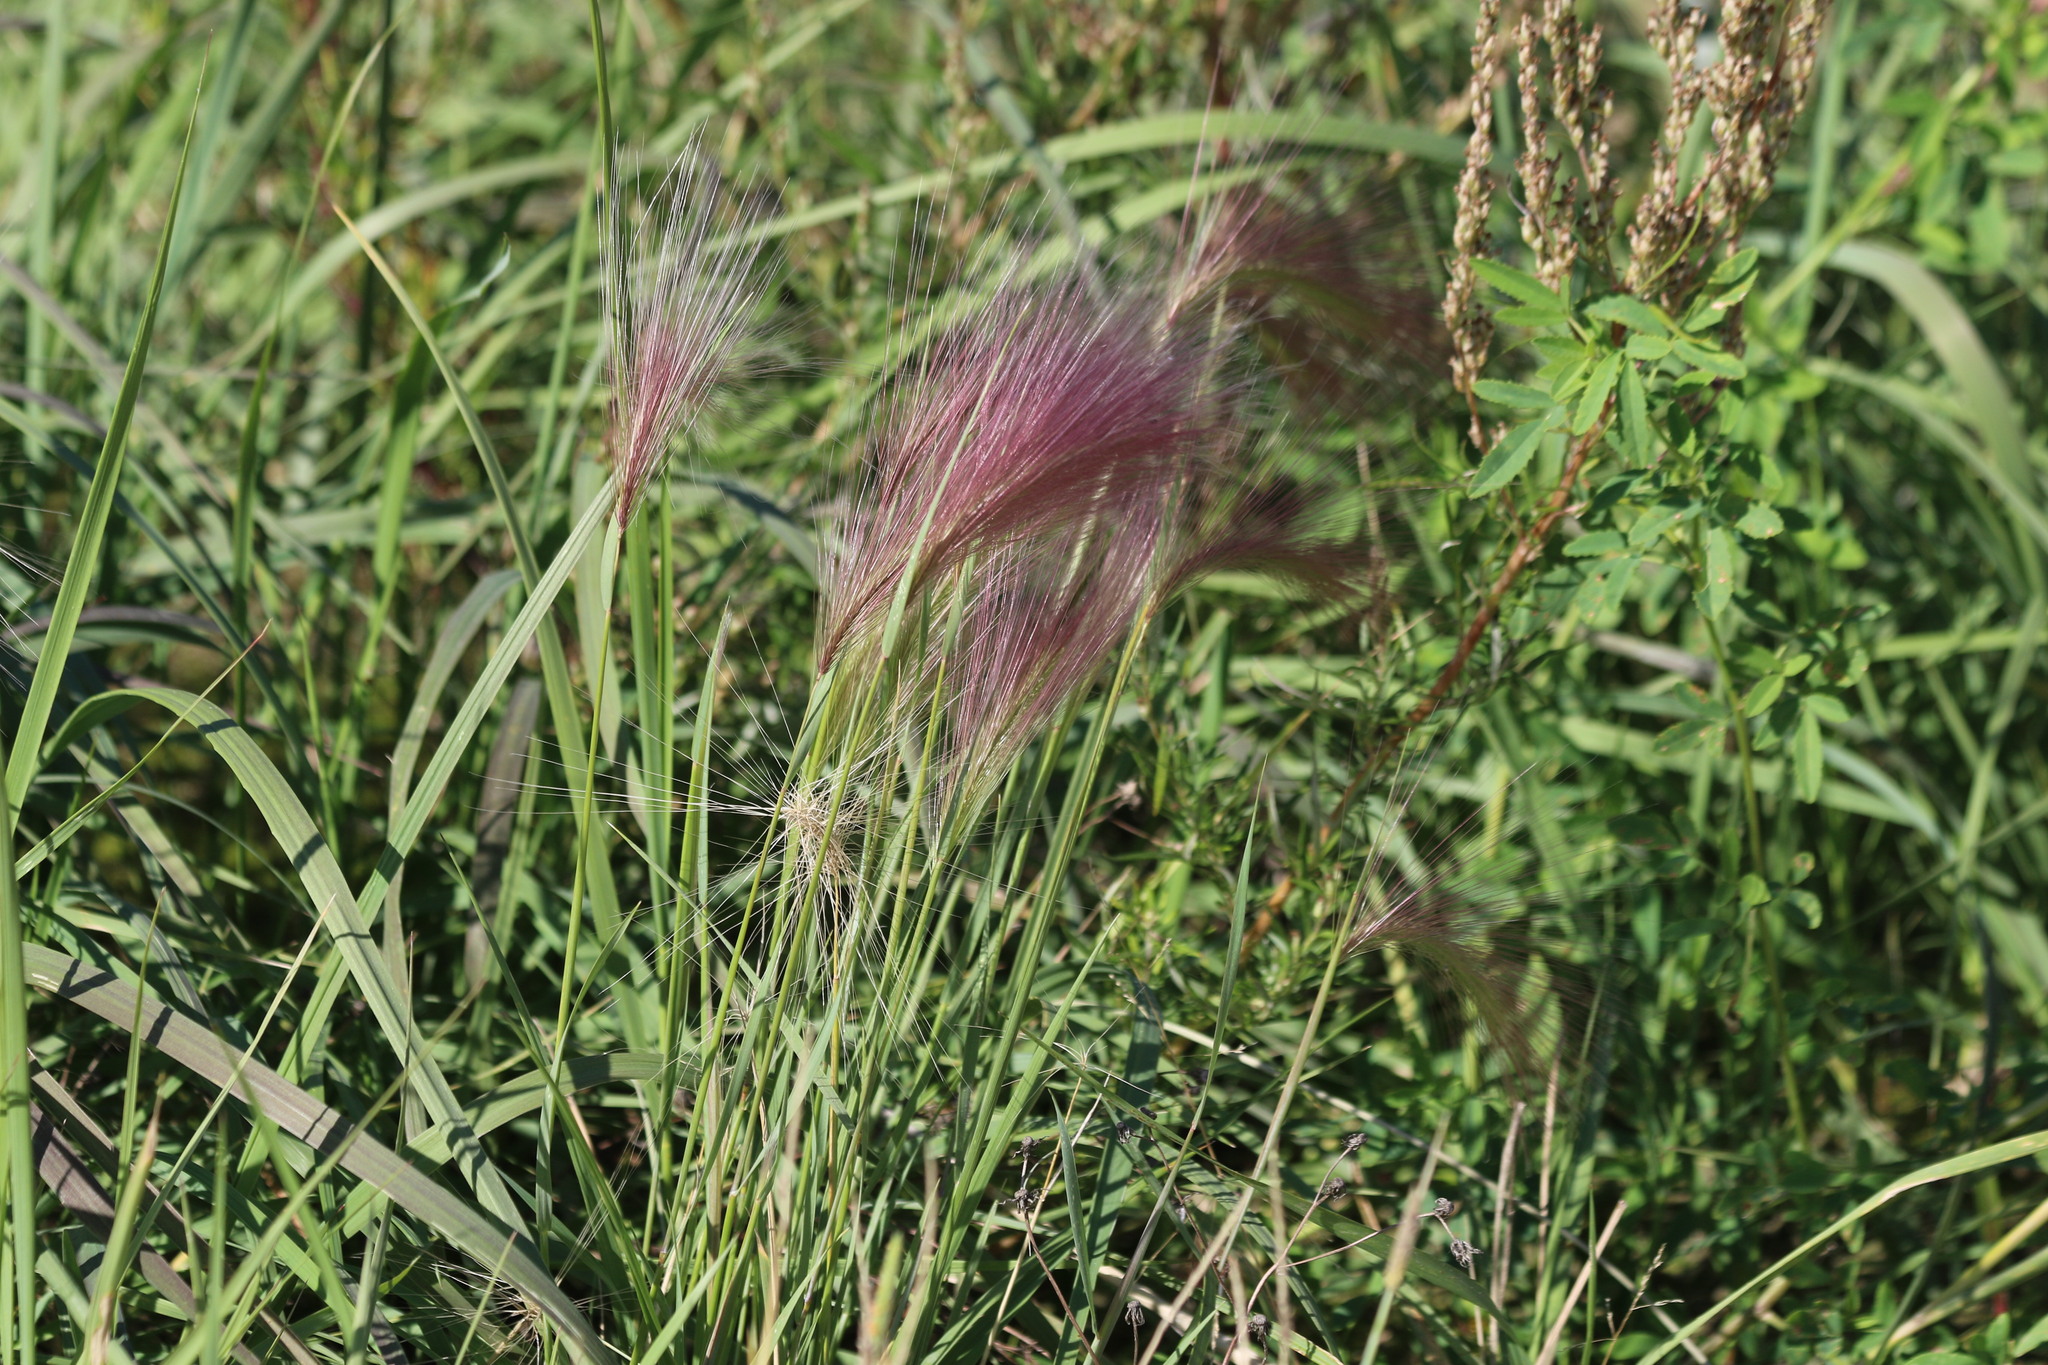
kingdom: Plantae
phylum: Tracheophyta
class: Liliopsida
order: Poales
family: Poaceae
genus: Hordeum
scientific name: Hordeum jubatum
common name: Foxtail barley
